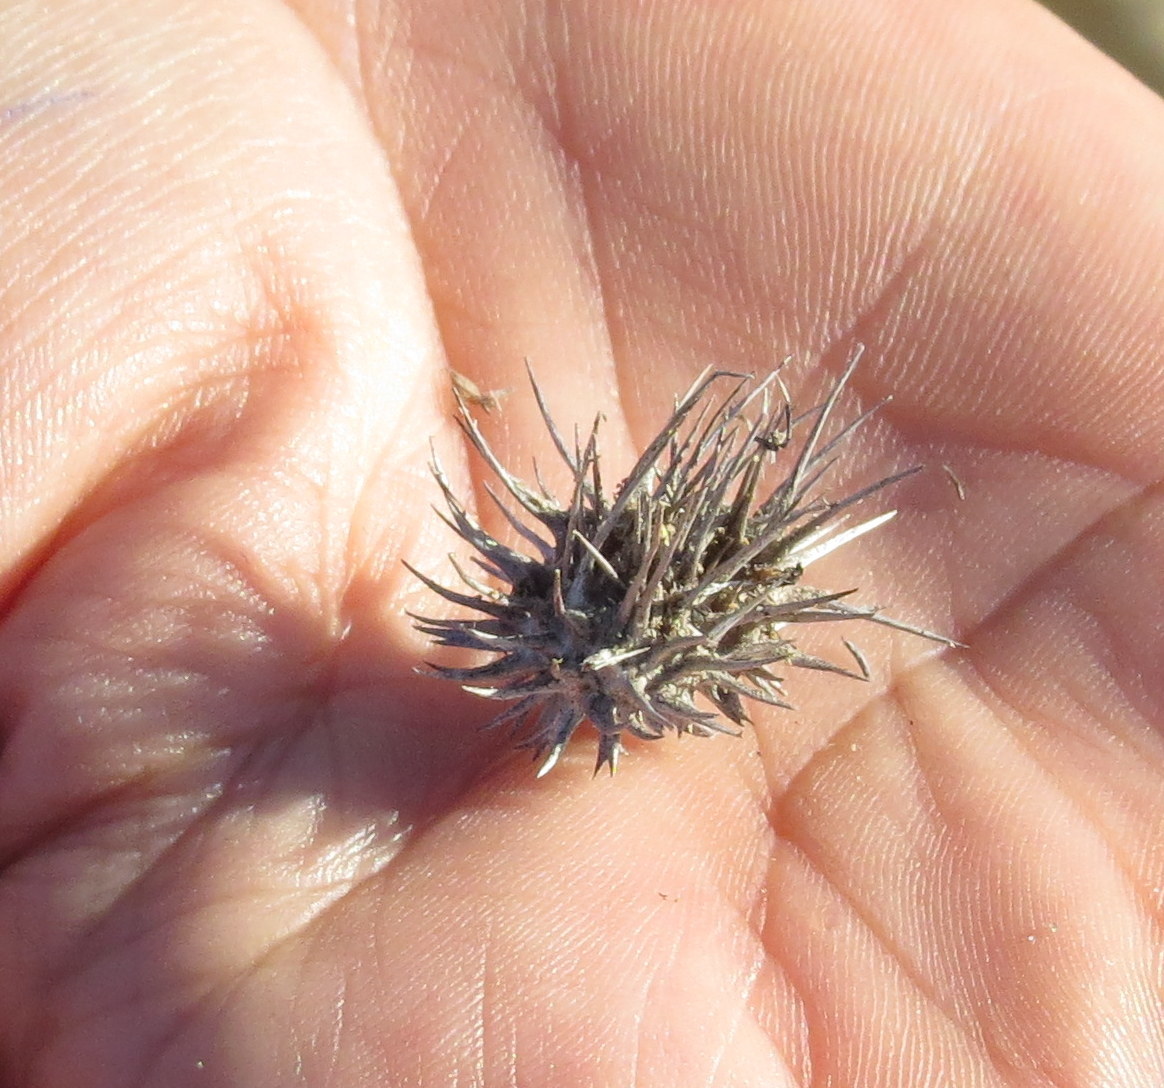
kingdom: Plantae
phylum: Tracheophyta
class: Liliopsida
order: Poales
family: Poaceae
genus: Cenchrus
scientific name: Cenchrus palmeri
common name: Giant sandbur
